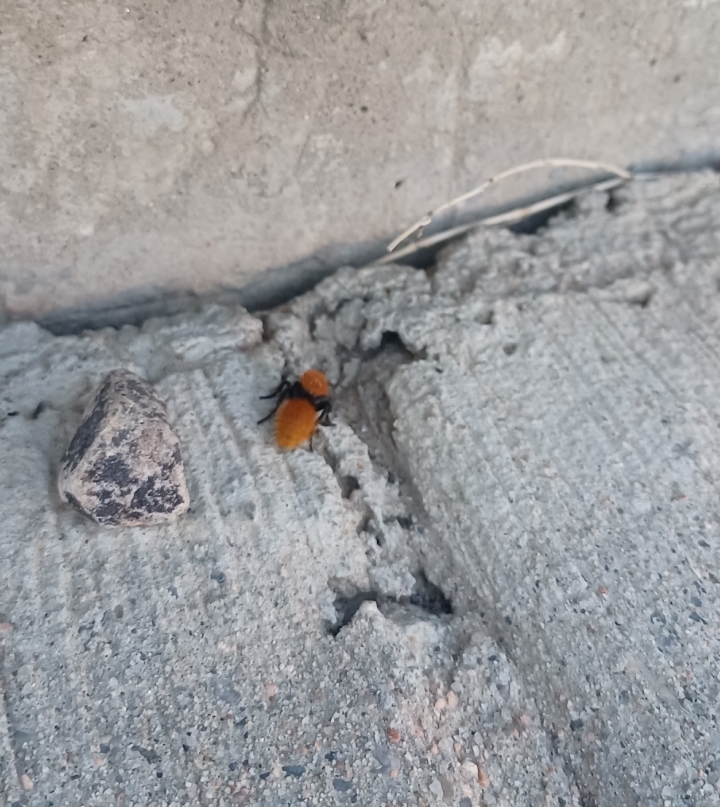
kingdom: Animalia
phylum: Arthropoda
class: Insecta
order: Hymenoptera
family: Mutillidae
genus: Dasymutilla
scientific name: Dasymutilla vestita
